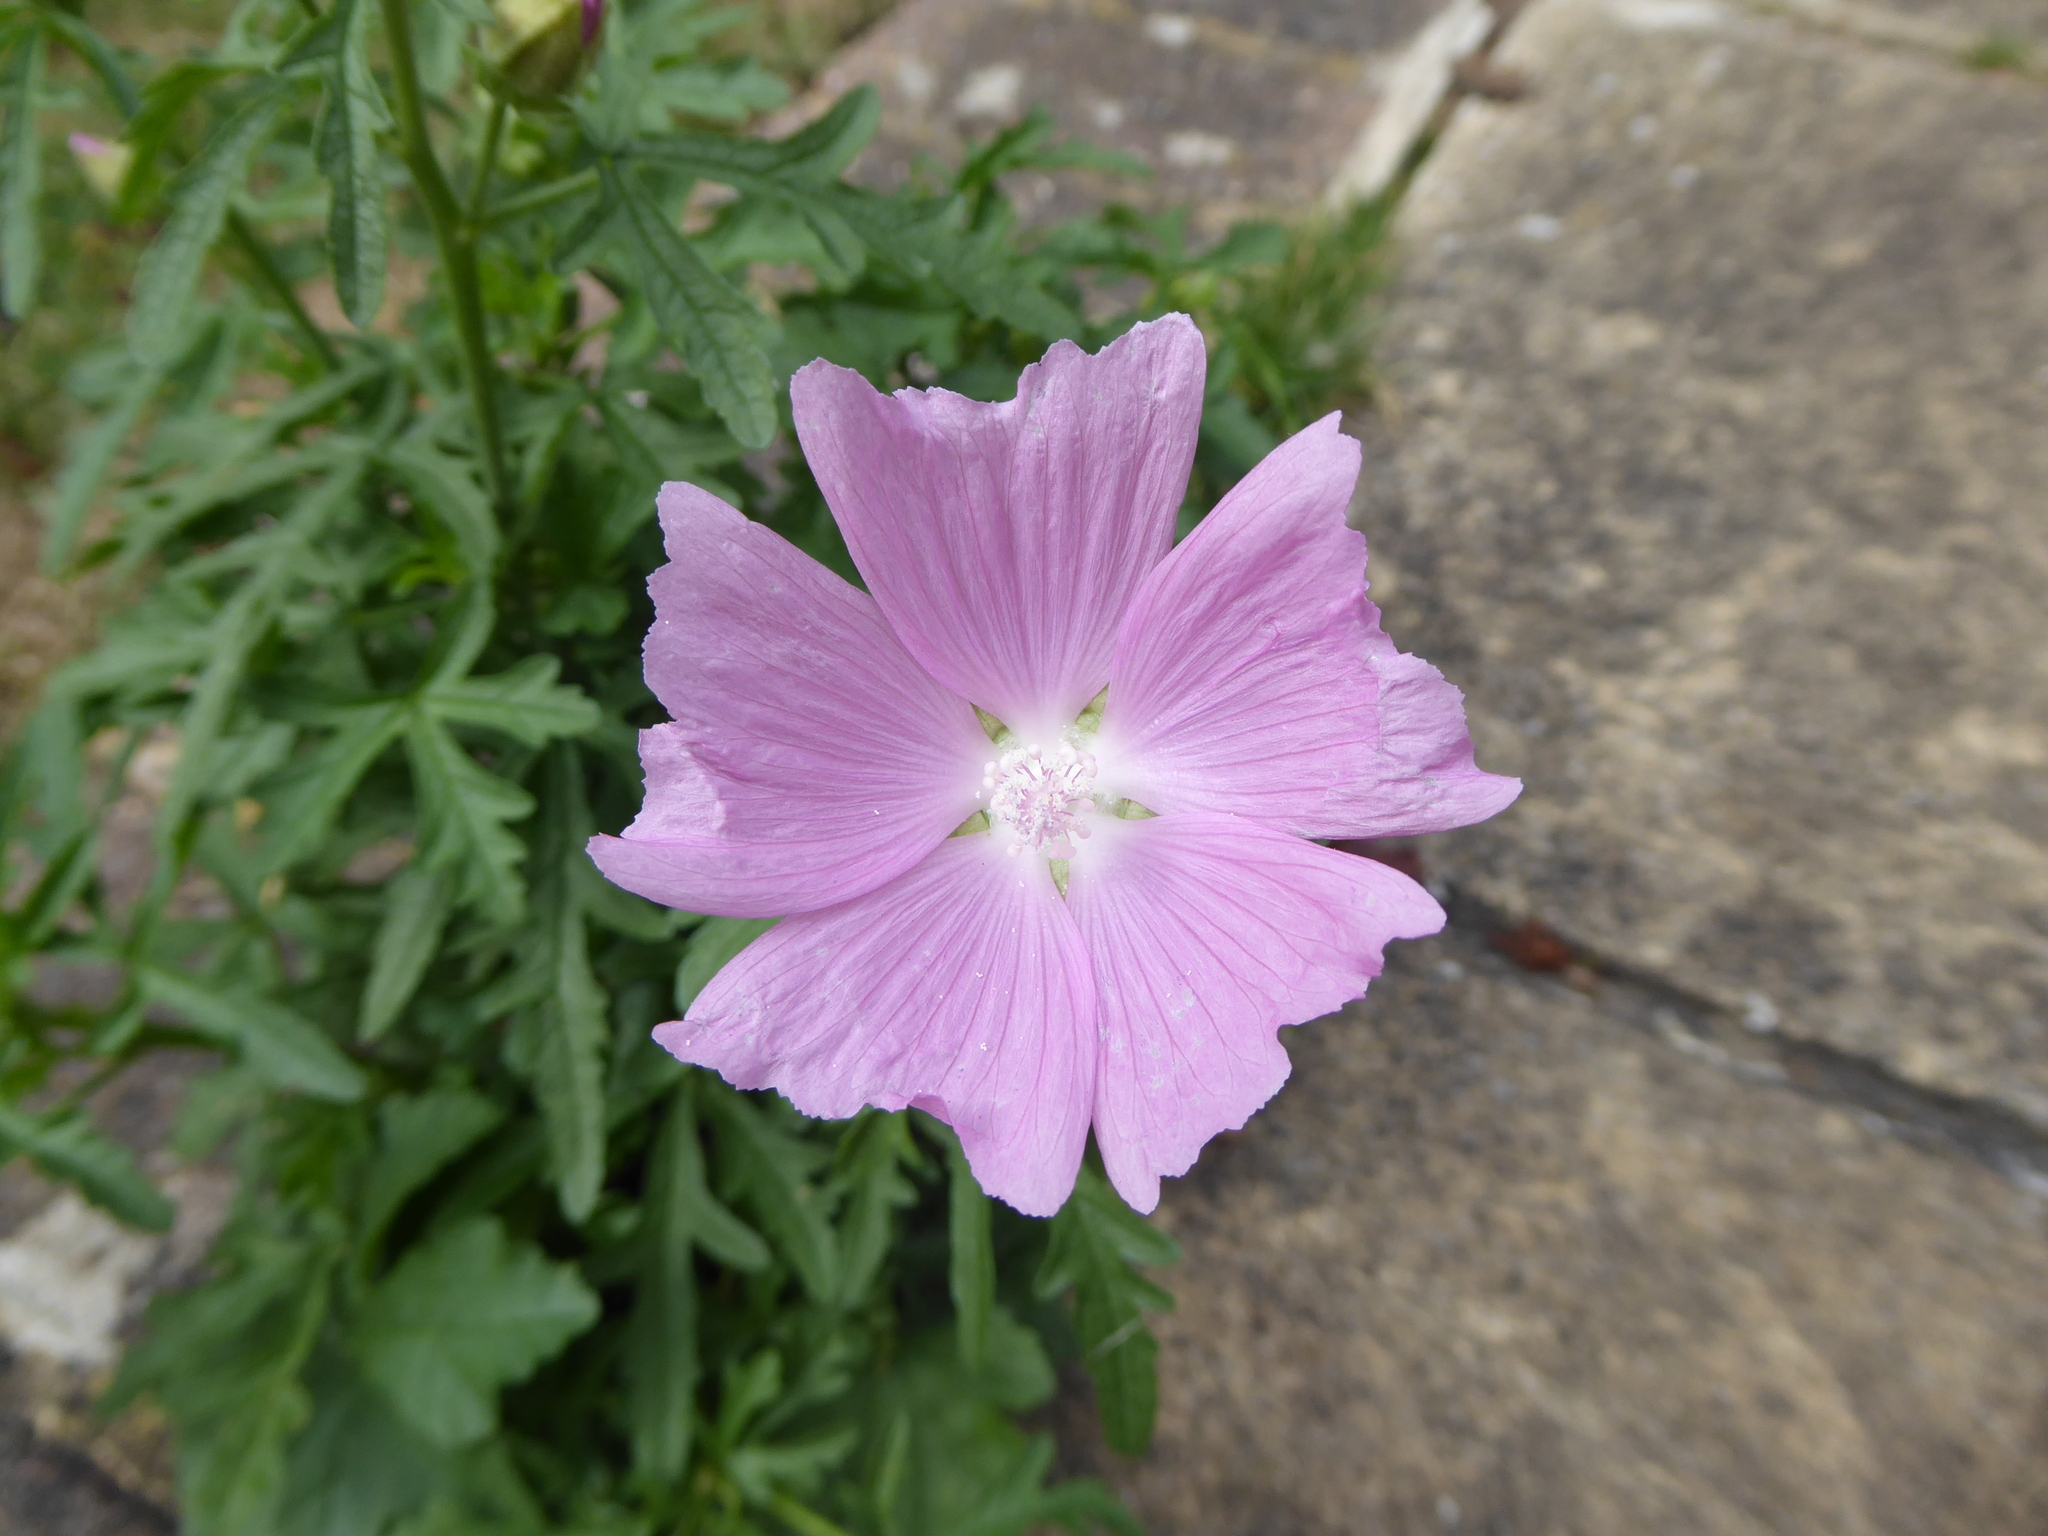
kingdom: Plantae
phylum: Tracheophyta
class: Magnoliopsida
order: Malvales
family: Malvaceae
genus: Malva
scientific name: Malva alcea
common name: Greater musk-mallow
